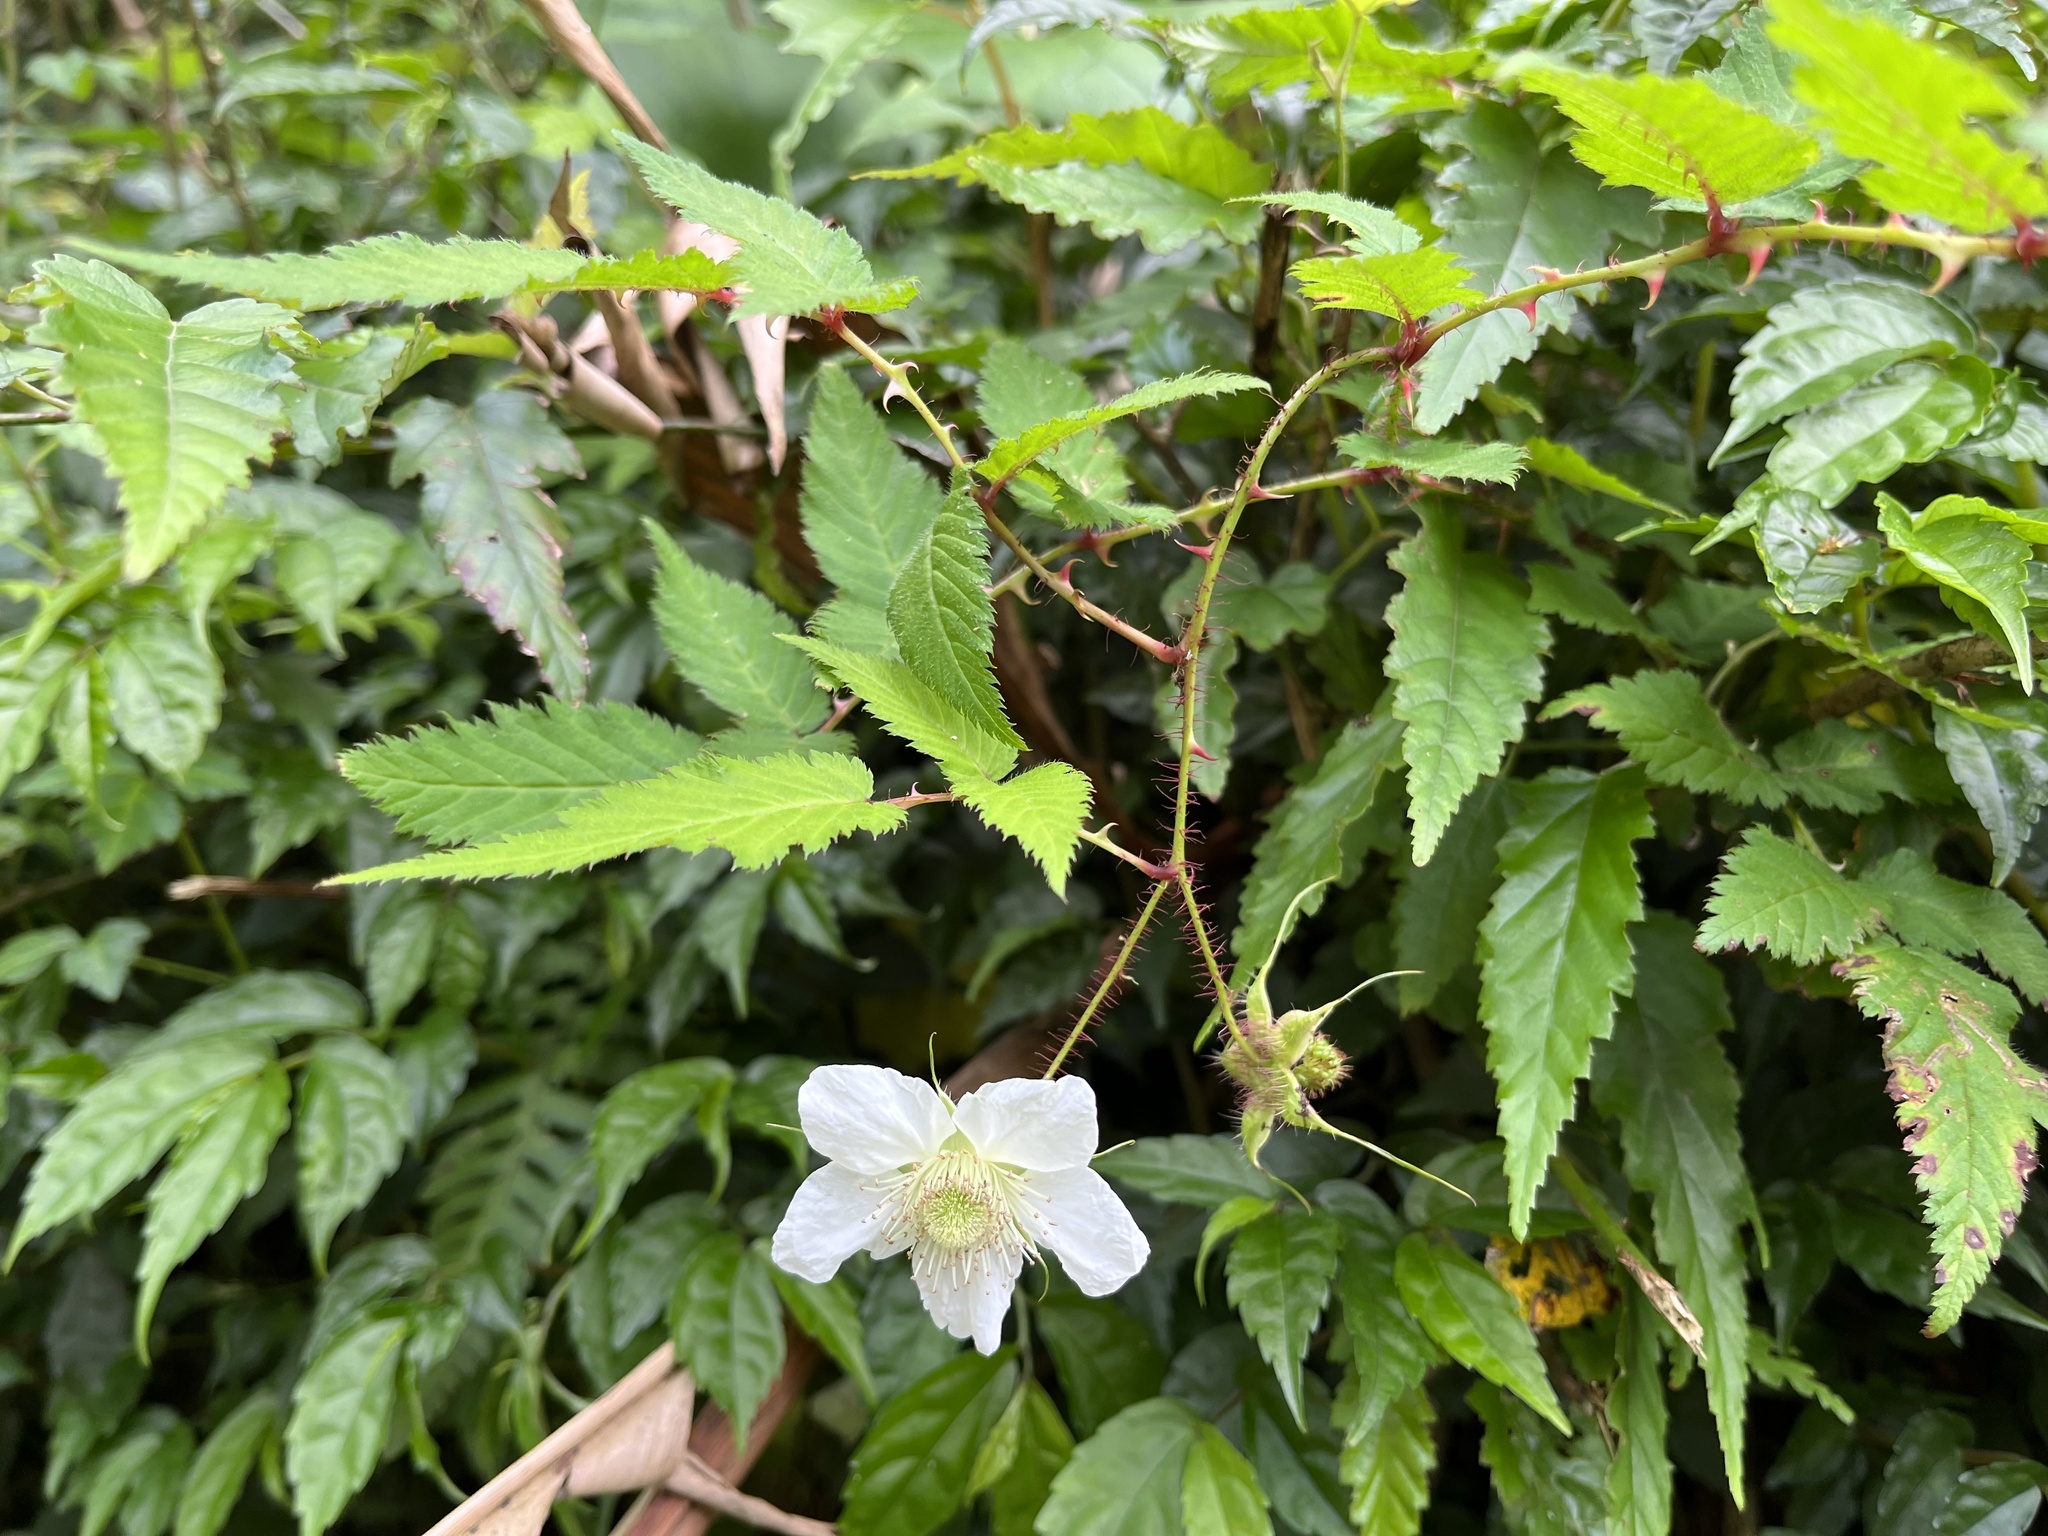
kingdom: Plantae
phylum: Tracheophyta
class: Magnoliopsida
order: Rosales
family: Rosaceae
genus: Rubus
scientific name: Rubus croceacanthus
